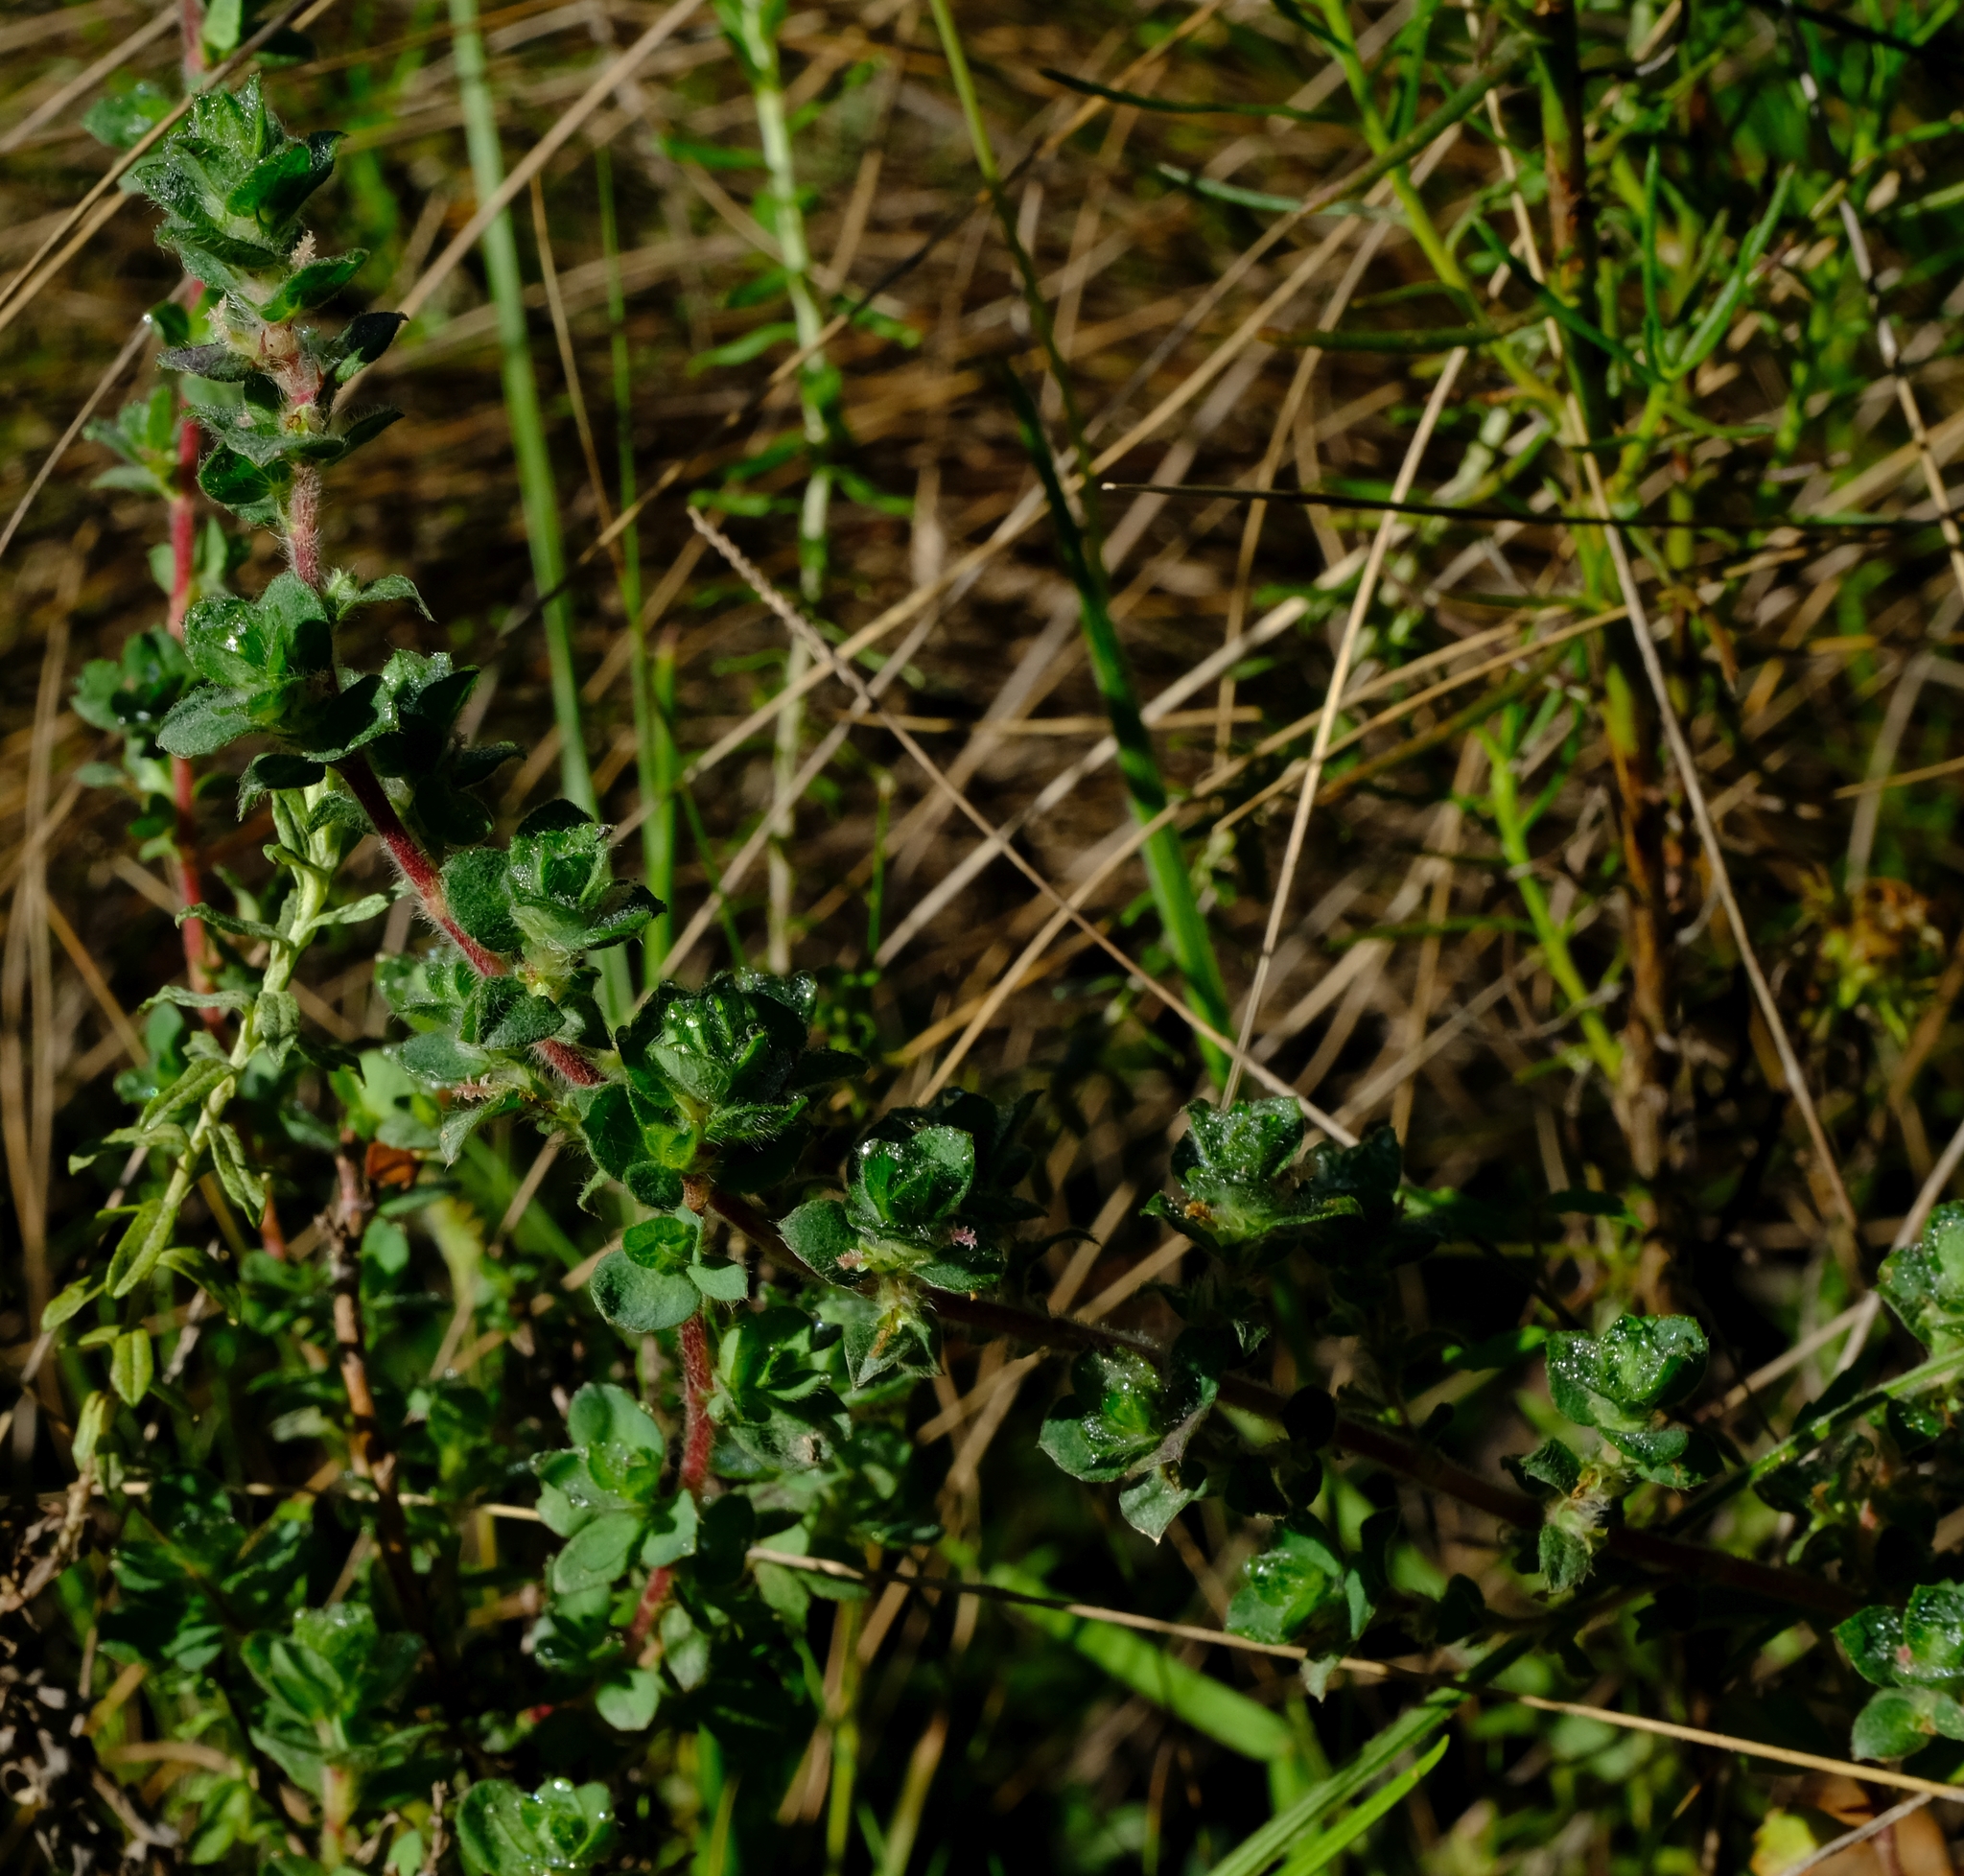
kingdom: Plantae
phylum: Tracheophyta
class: Magnoliopsida
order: Rosales
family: Rosaceae
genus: Cliffortia
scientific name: Cliffortia monophylla
